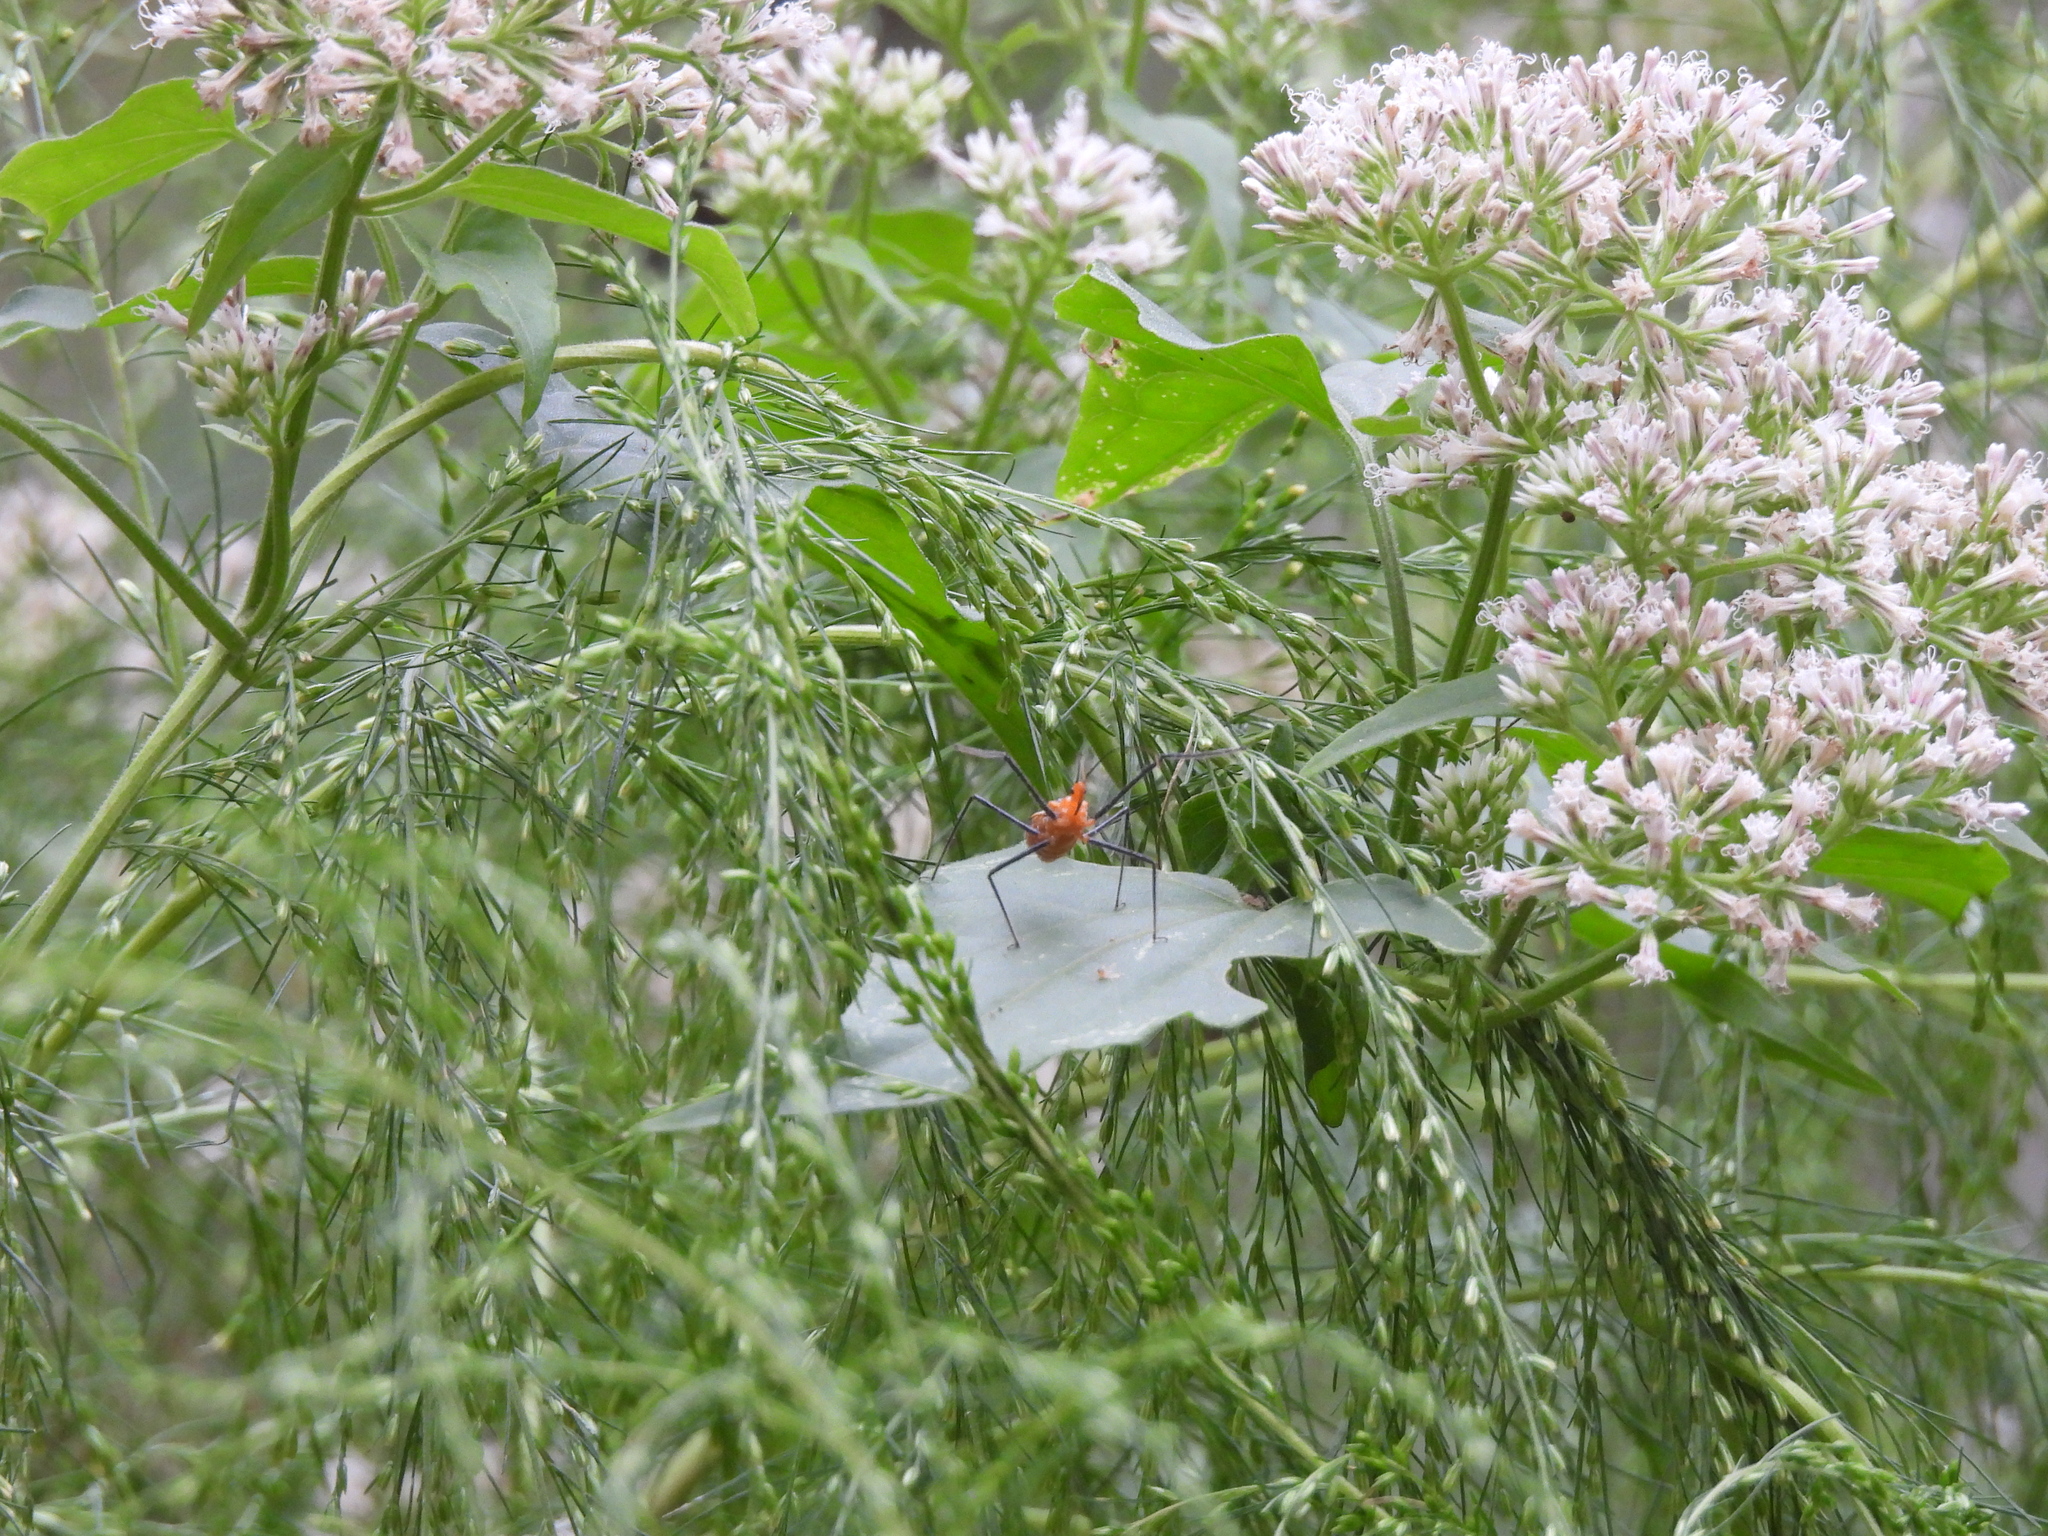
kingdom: Animalia
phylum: Arthropoda
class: Insecta
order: Hemiptera
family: Reduviidae
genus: Zelus
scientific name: Zelus longipes
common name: Milkweed assassin bug
